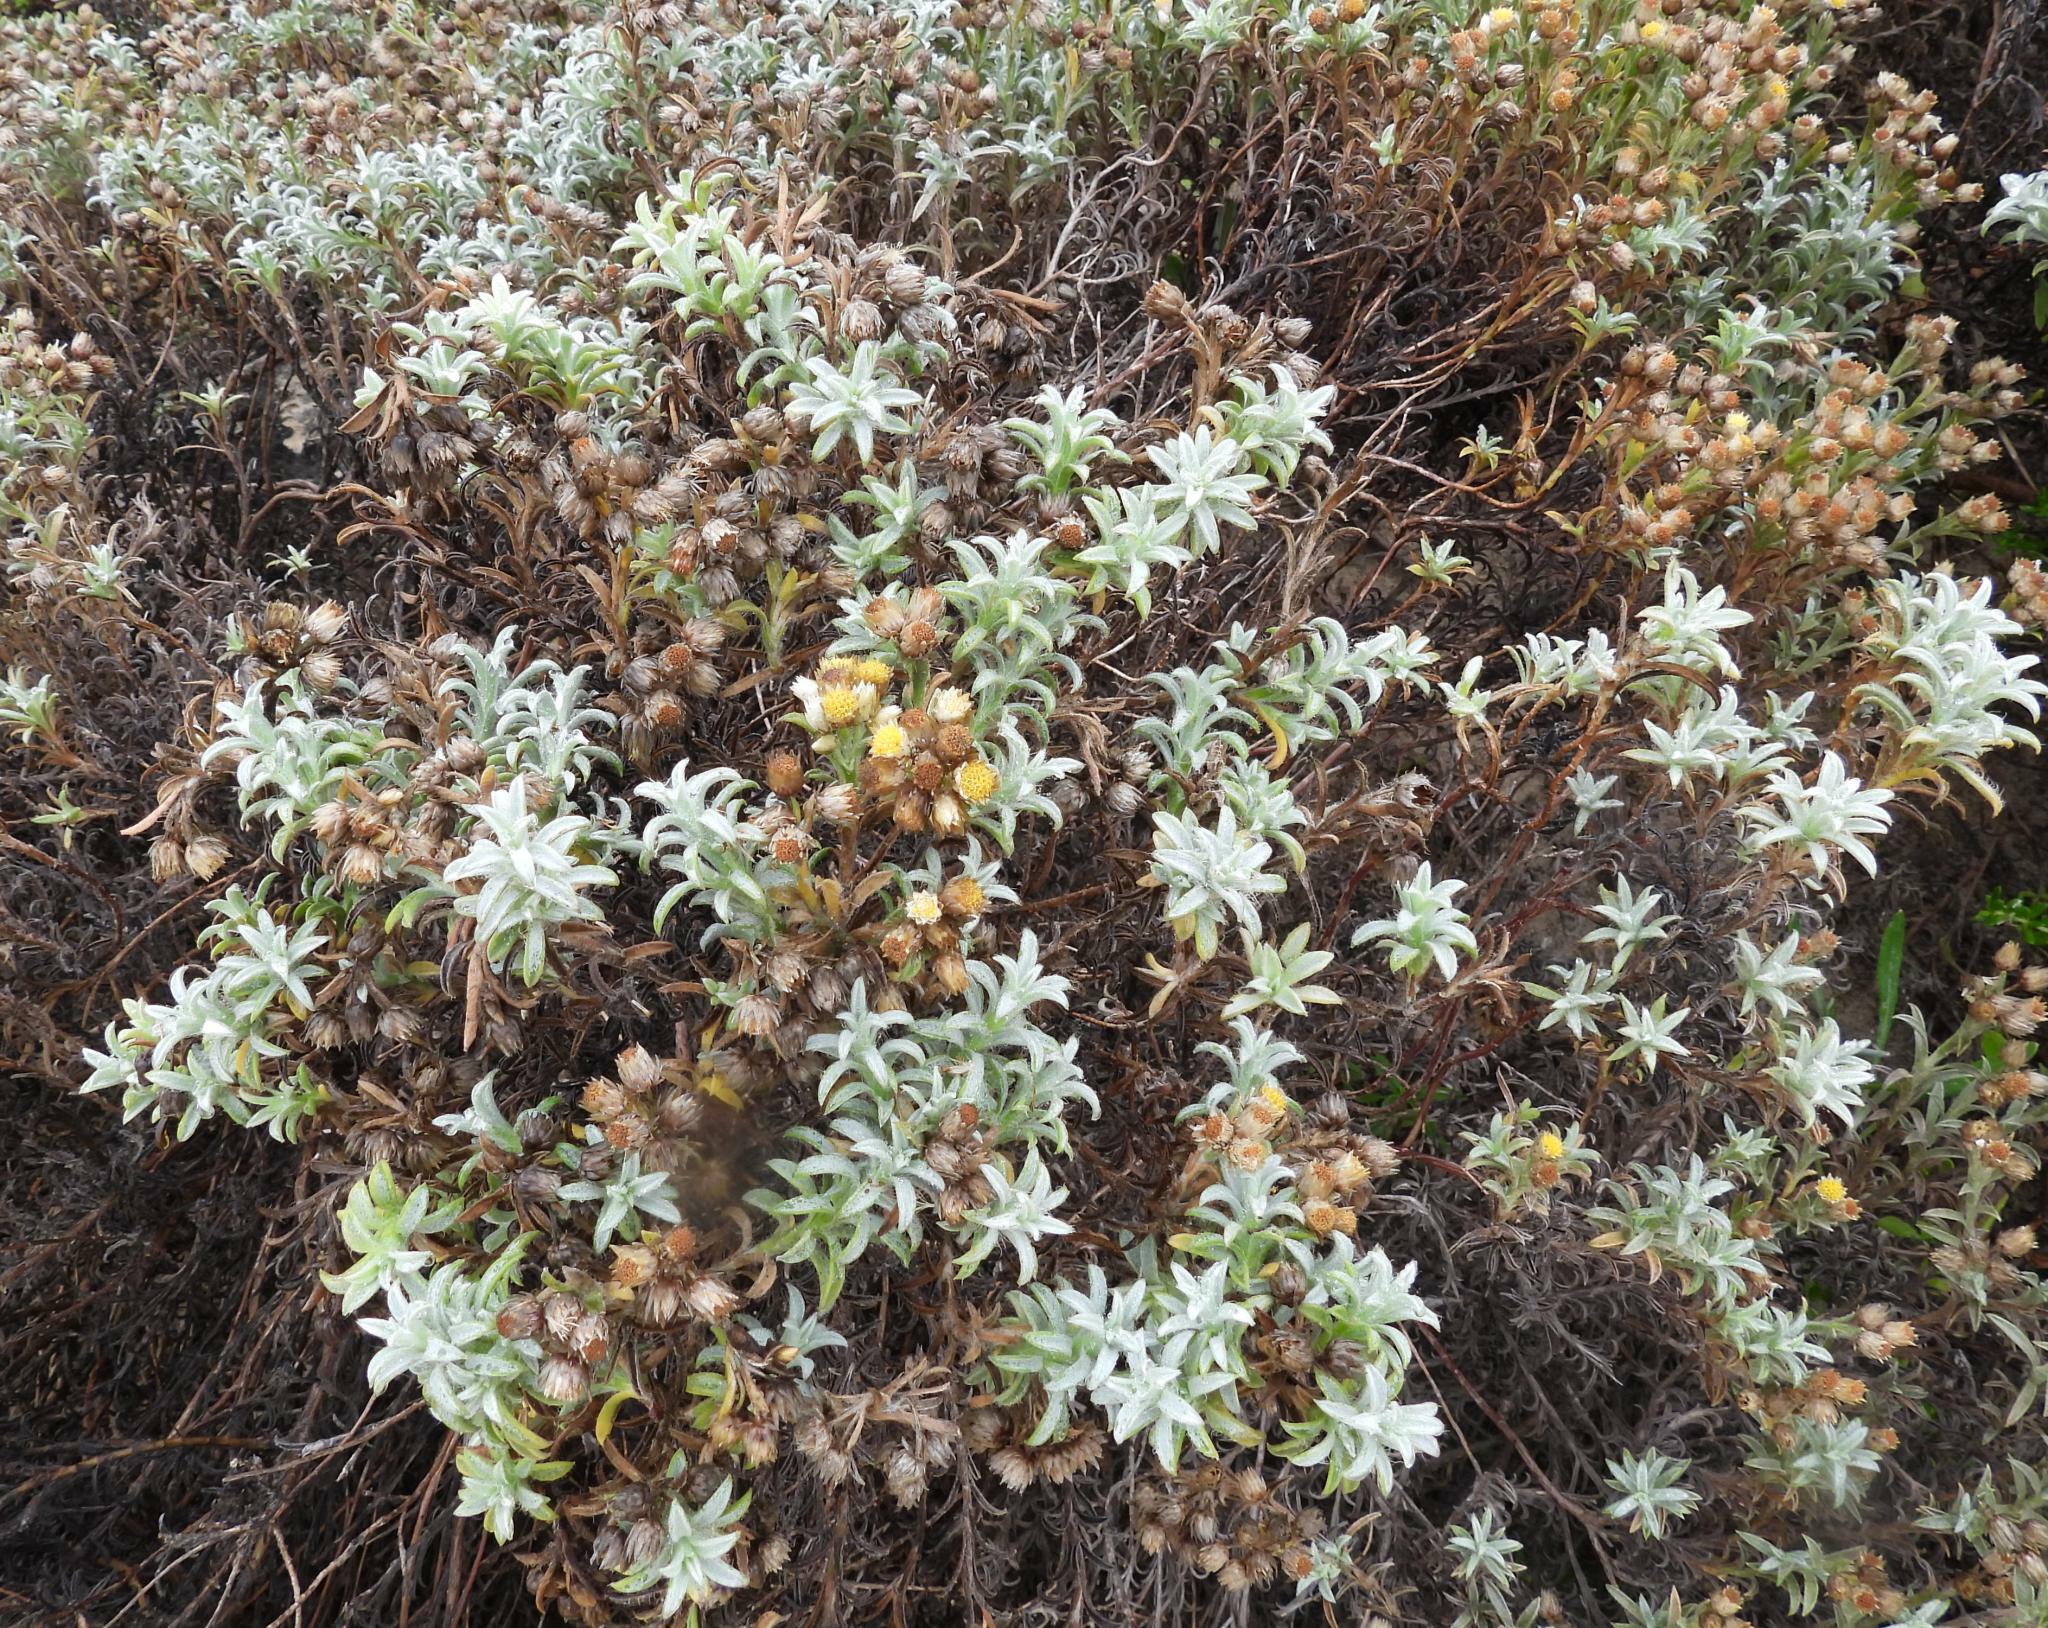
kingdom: Plantae
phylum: Tracheophyta
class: Magnoliopsida
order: Asterales
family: Asteraceae
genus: Achyranthemum
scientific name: Achyranthemum argenteum
